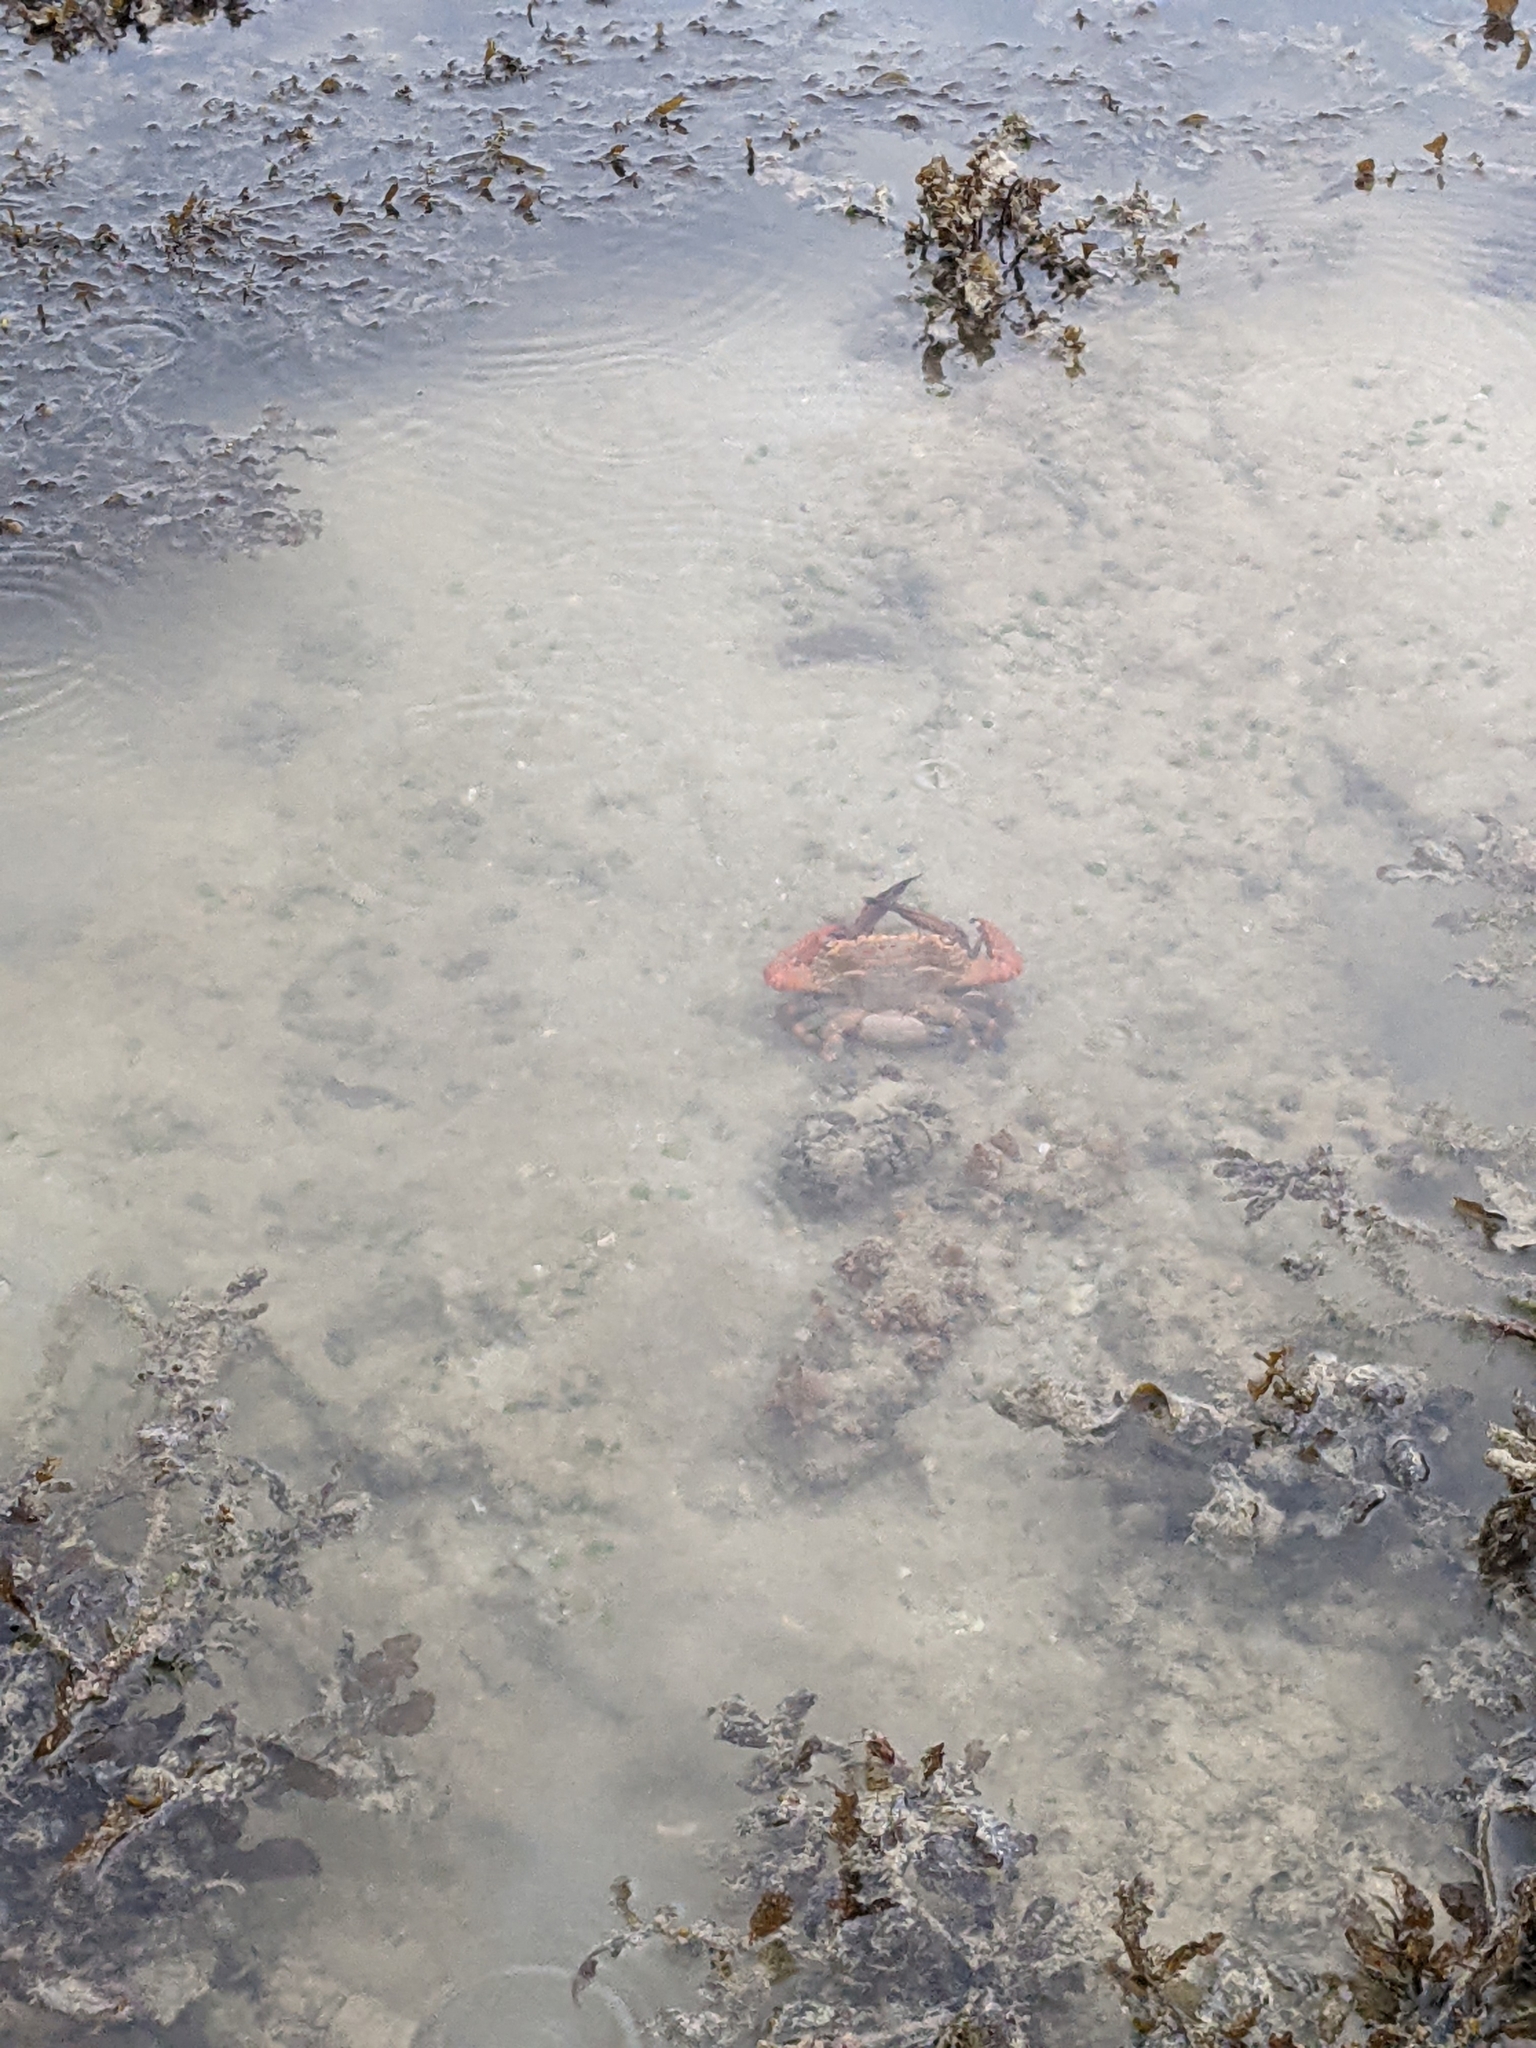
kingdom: Animalia
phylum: Arthropoda
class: Malacostraca
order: Decapoda
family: Portunidae
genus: Thalamita
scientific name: Thalamita spinimana
